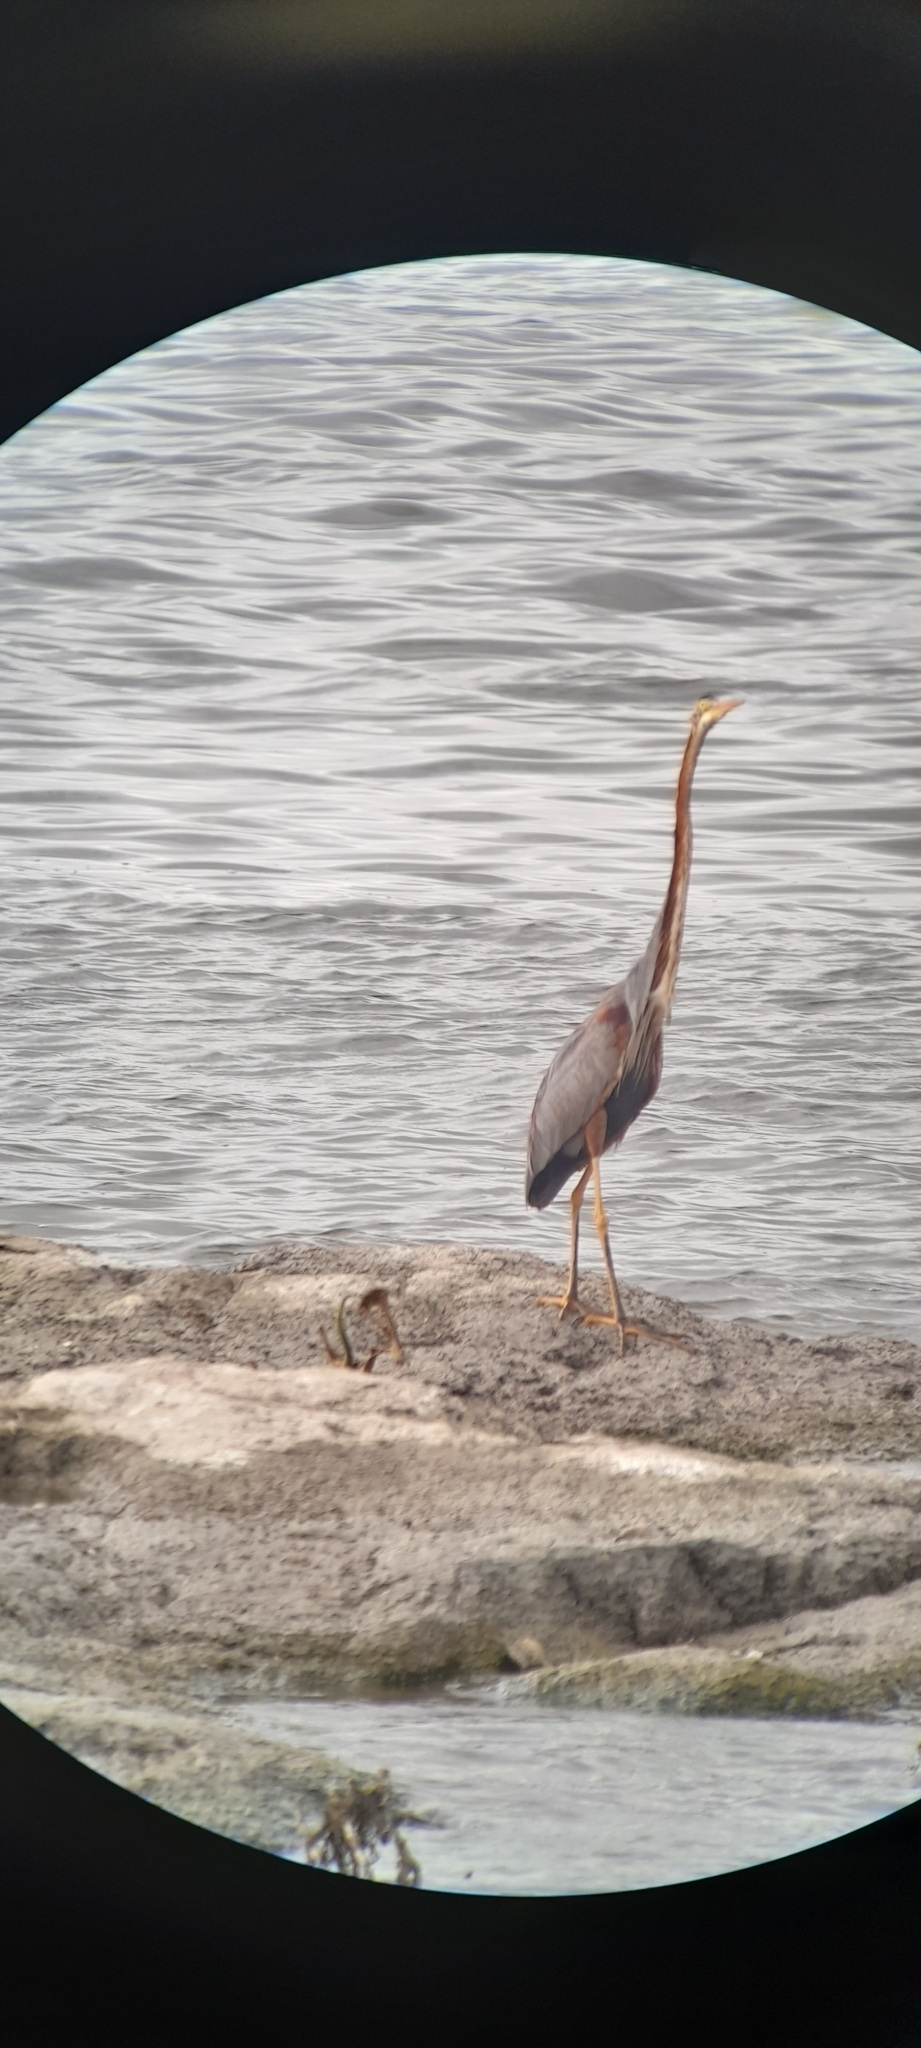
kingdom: Animalia
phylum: Chordata
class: Aves
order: Pelecaniformes
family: Ardeidae
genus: Ardea
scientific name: Ardea purpurea
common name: Purple heron
